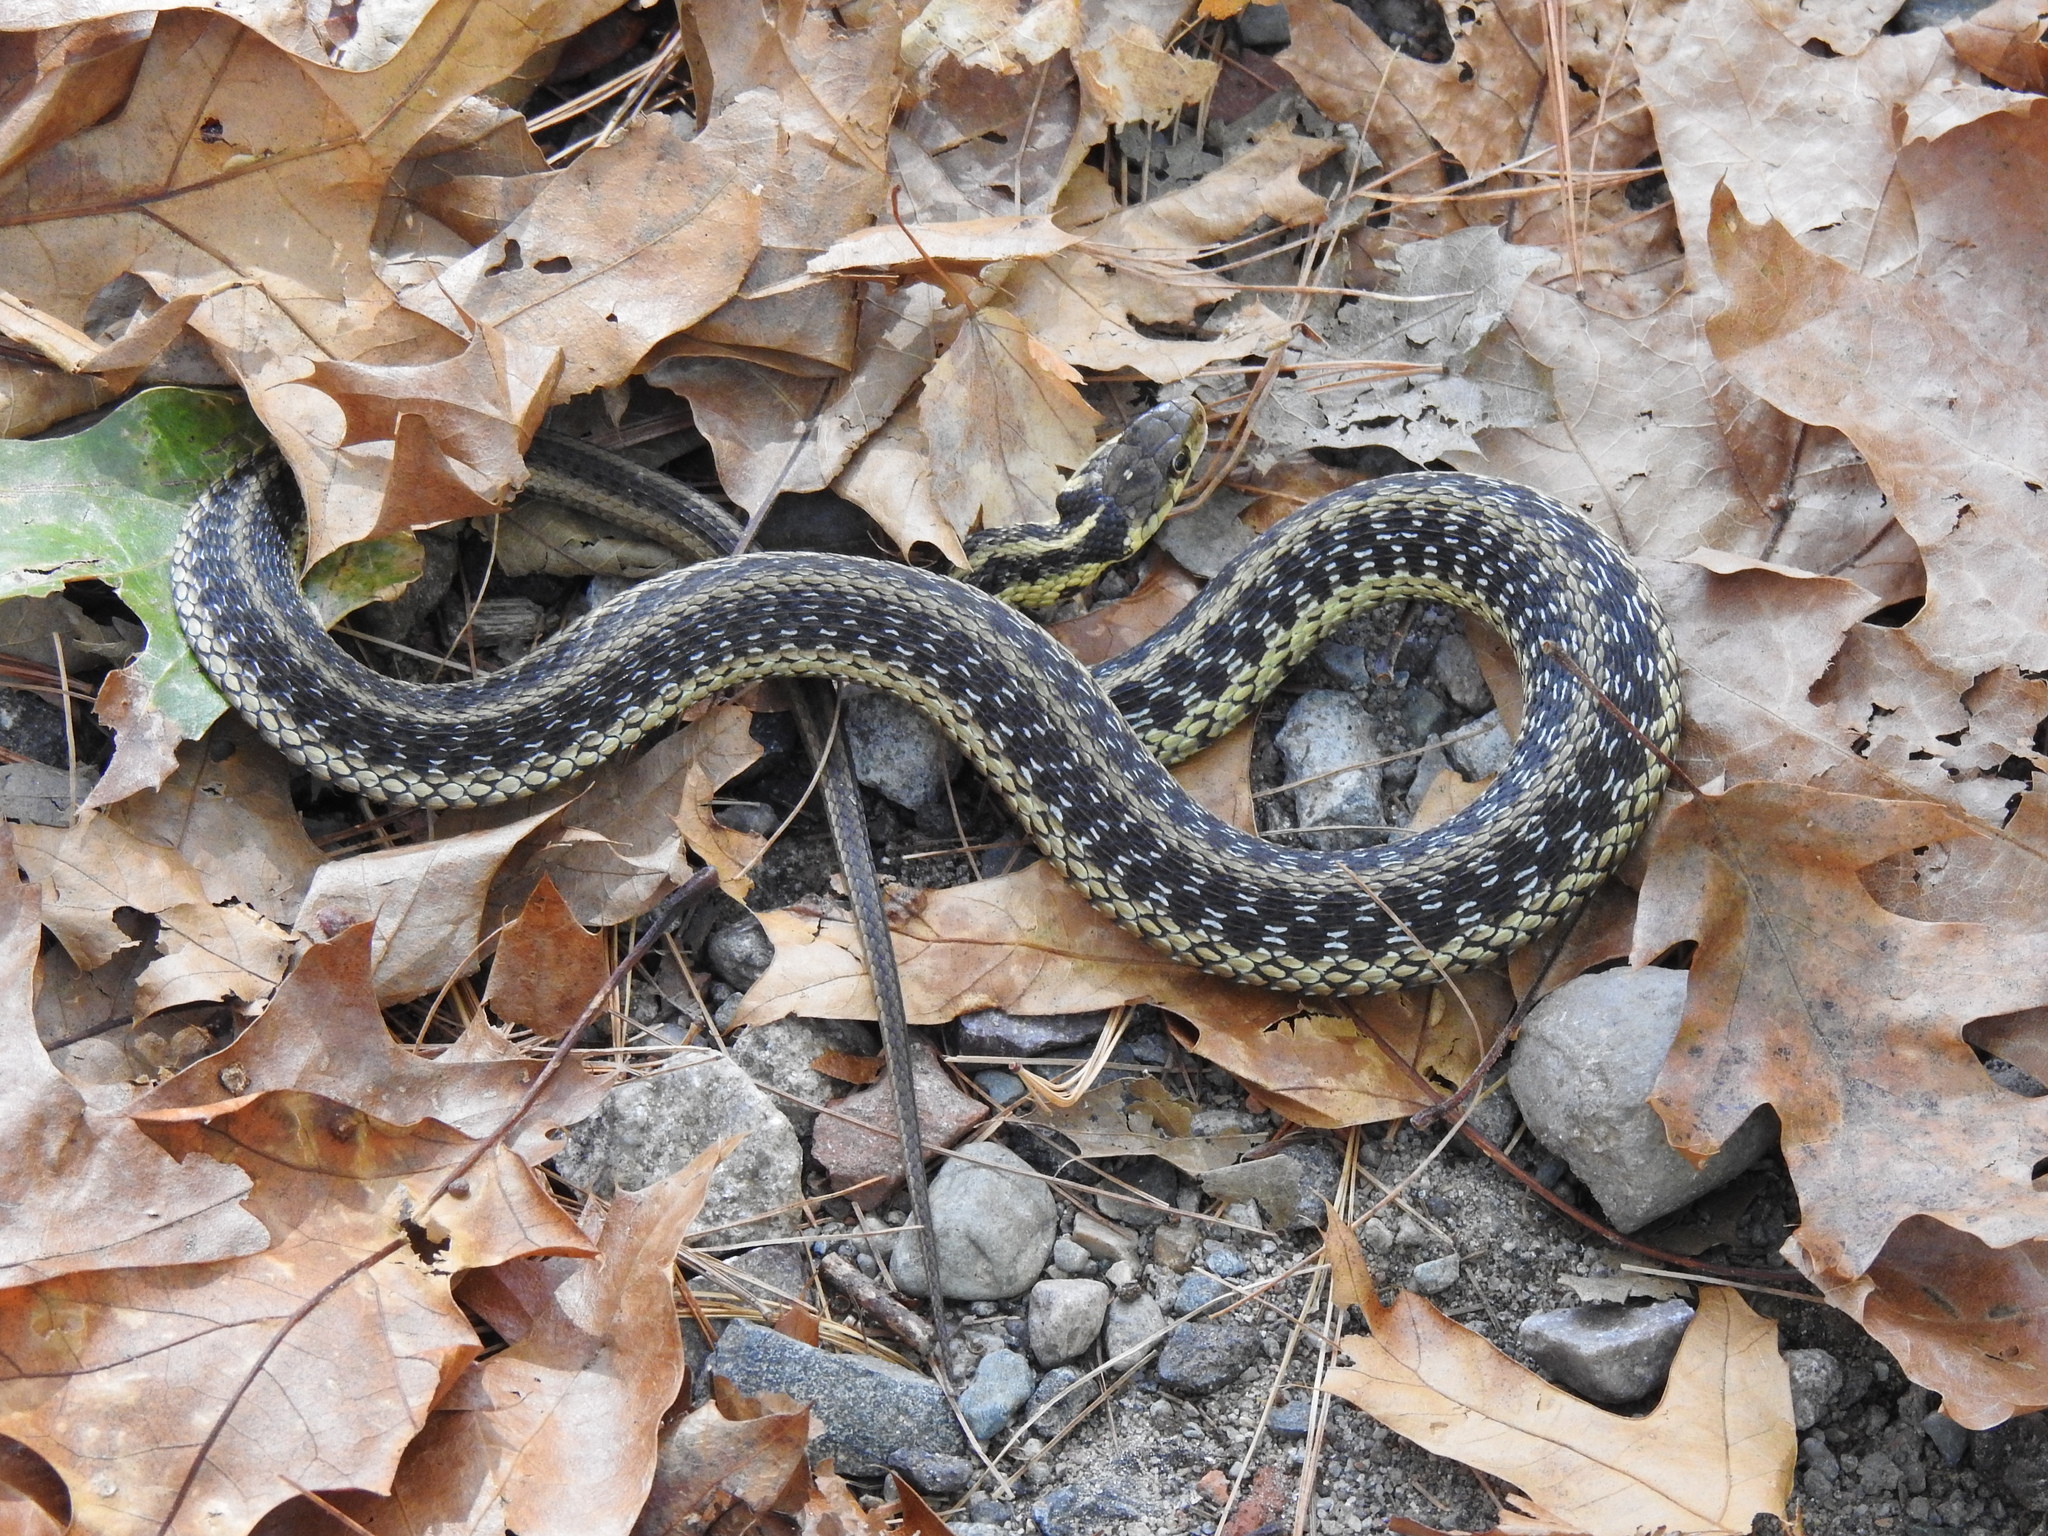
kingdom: Animalia
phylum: Chordata
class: Squamata
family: Colubridae
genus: Thamnophis
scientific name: Thamnophis sirtalis
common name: Common garter snake
